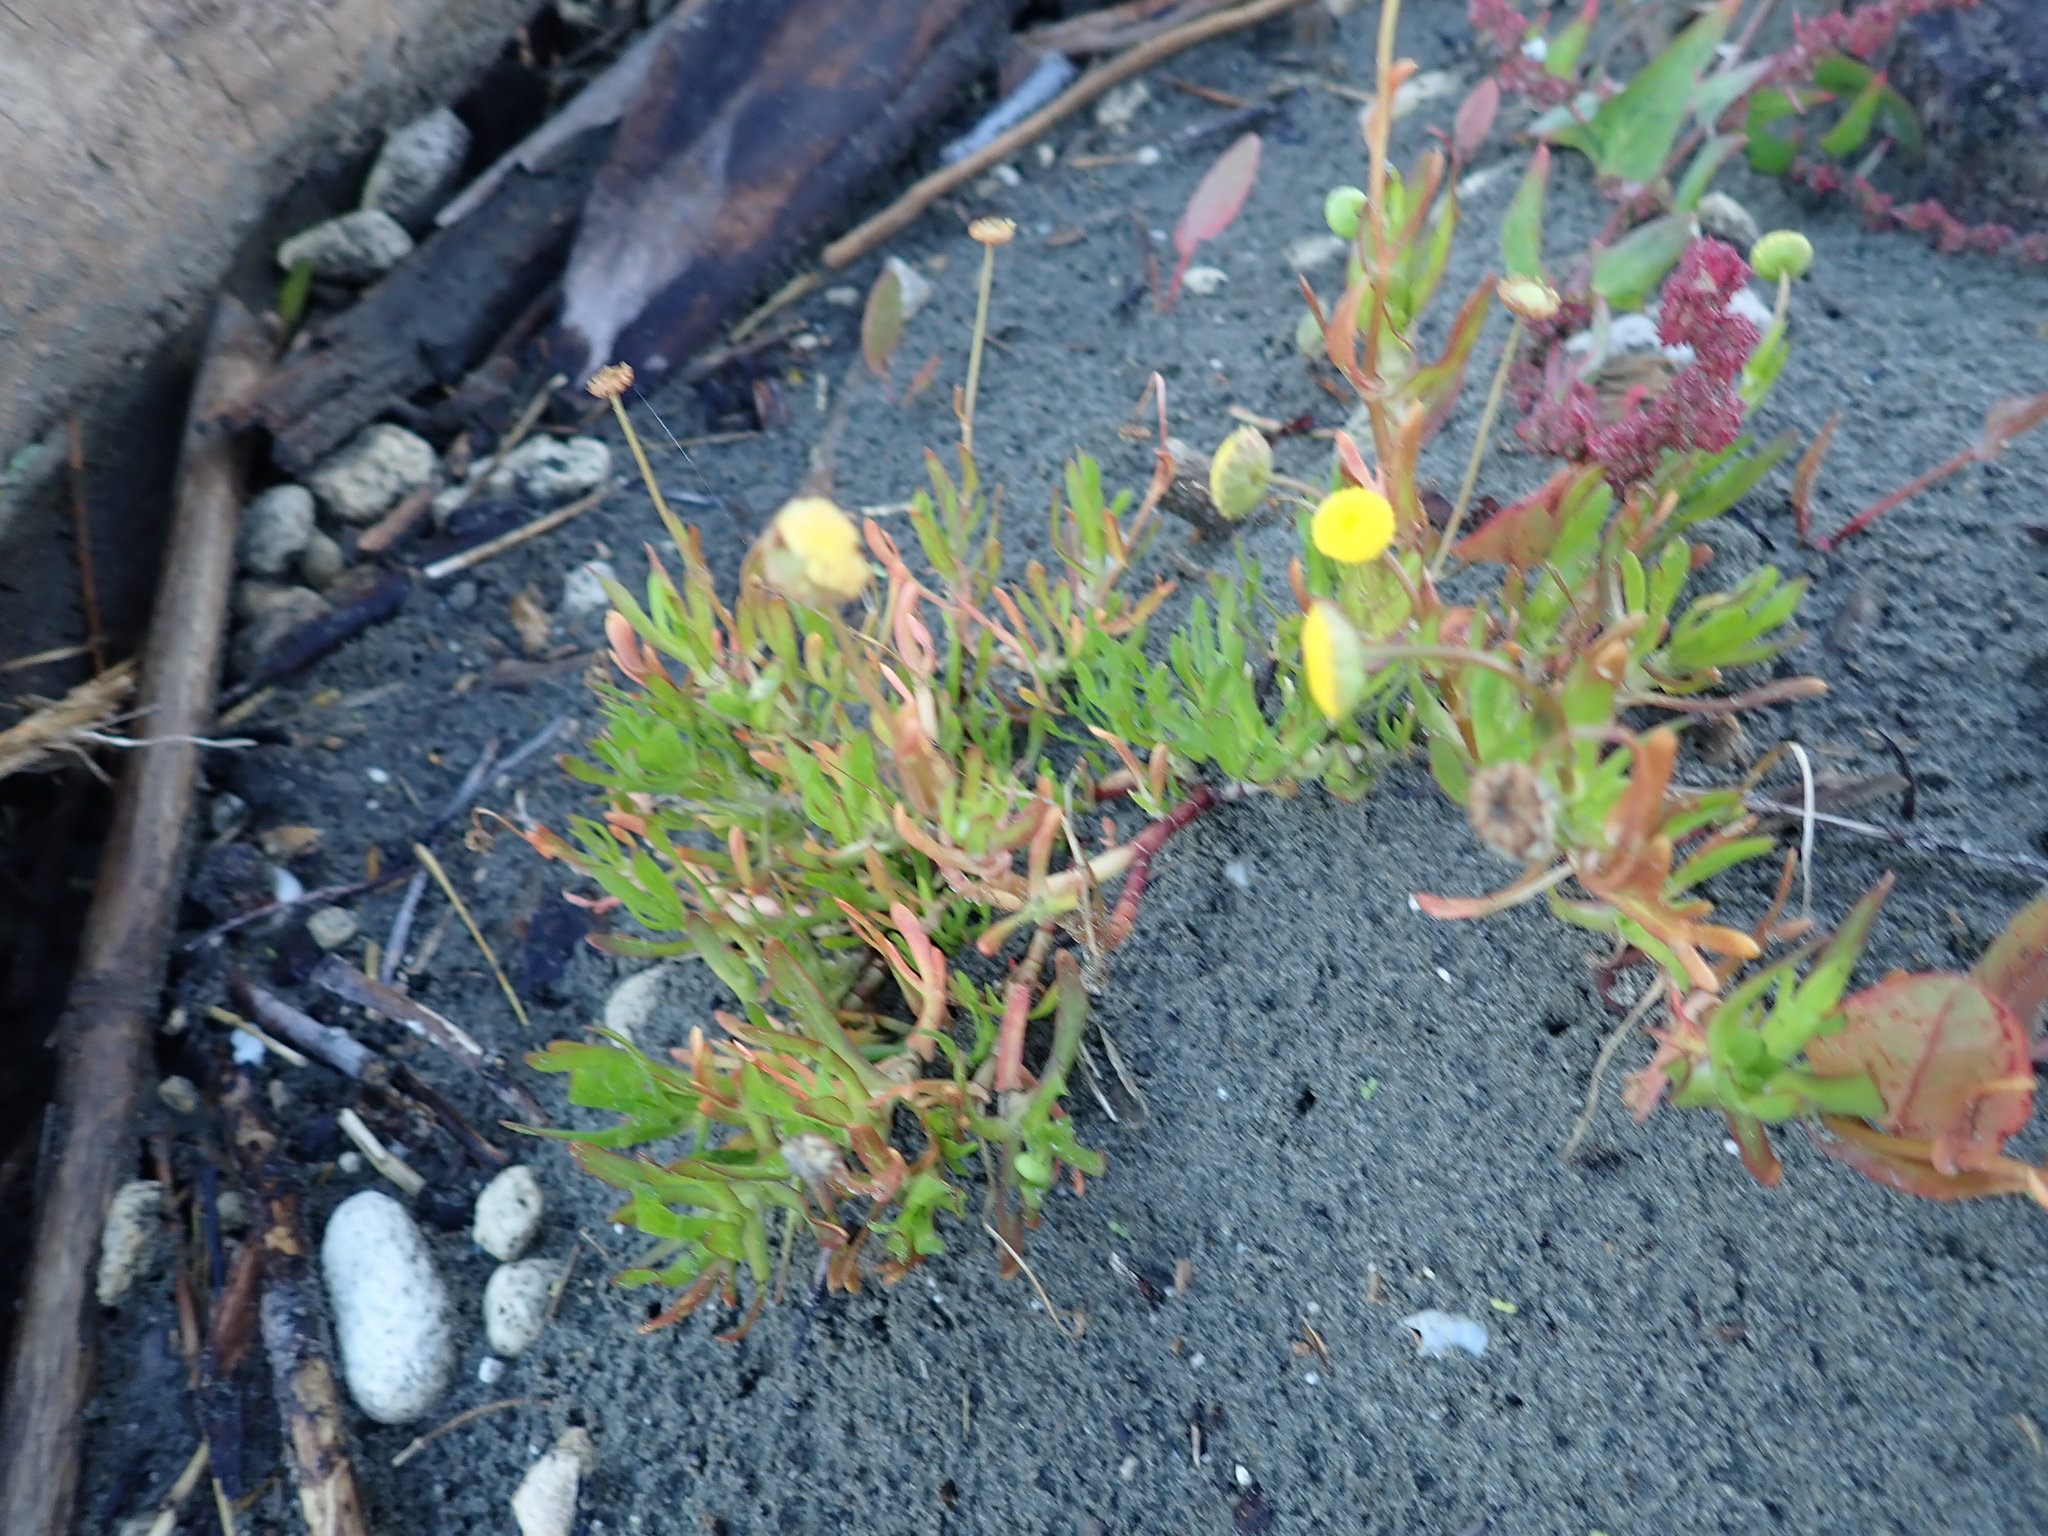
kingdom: Plantae
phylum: Tracheophyta
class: Magnoliopsida
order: Asterales
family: Asteraceae
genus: Cotula
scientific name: Cotula coronopifolia
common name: Buttonweed
